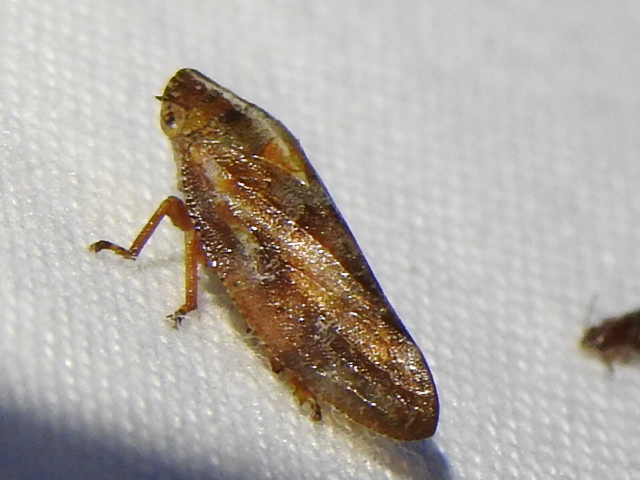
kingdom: Animalia
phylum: Arthropoda
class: Insecta
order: Hemiptera
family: Aphrophoridae
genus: Aphrophora
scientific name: Aphrophora saratogensis
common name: Saratoga spittlebug
